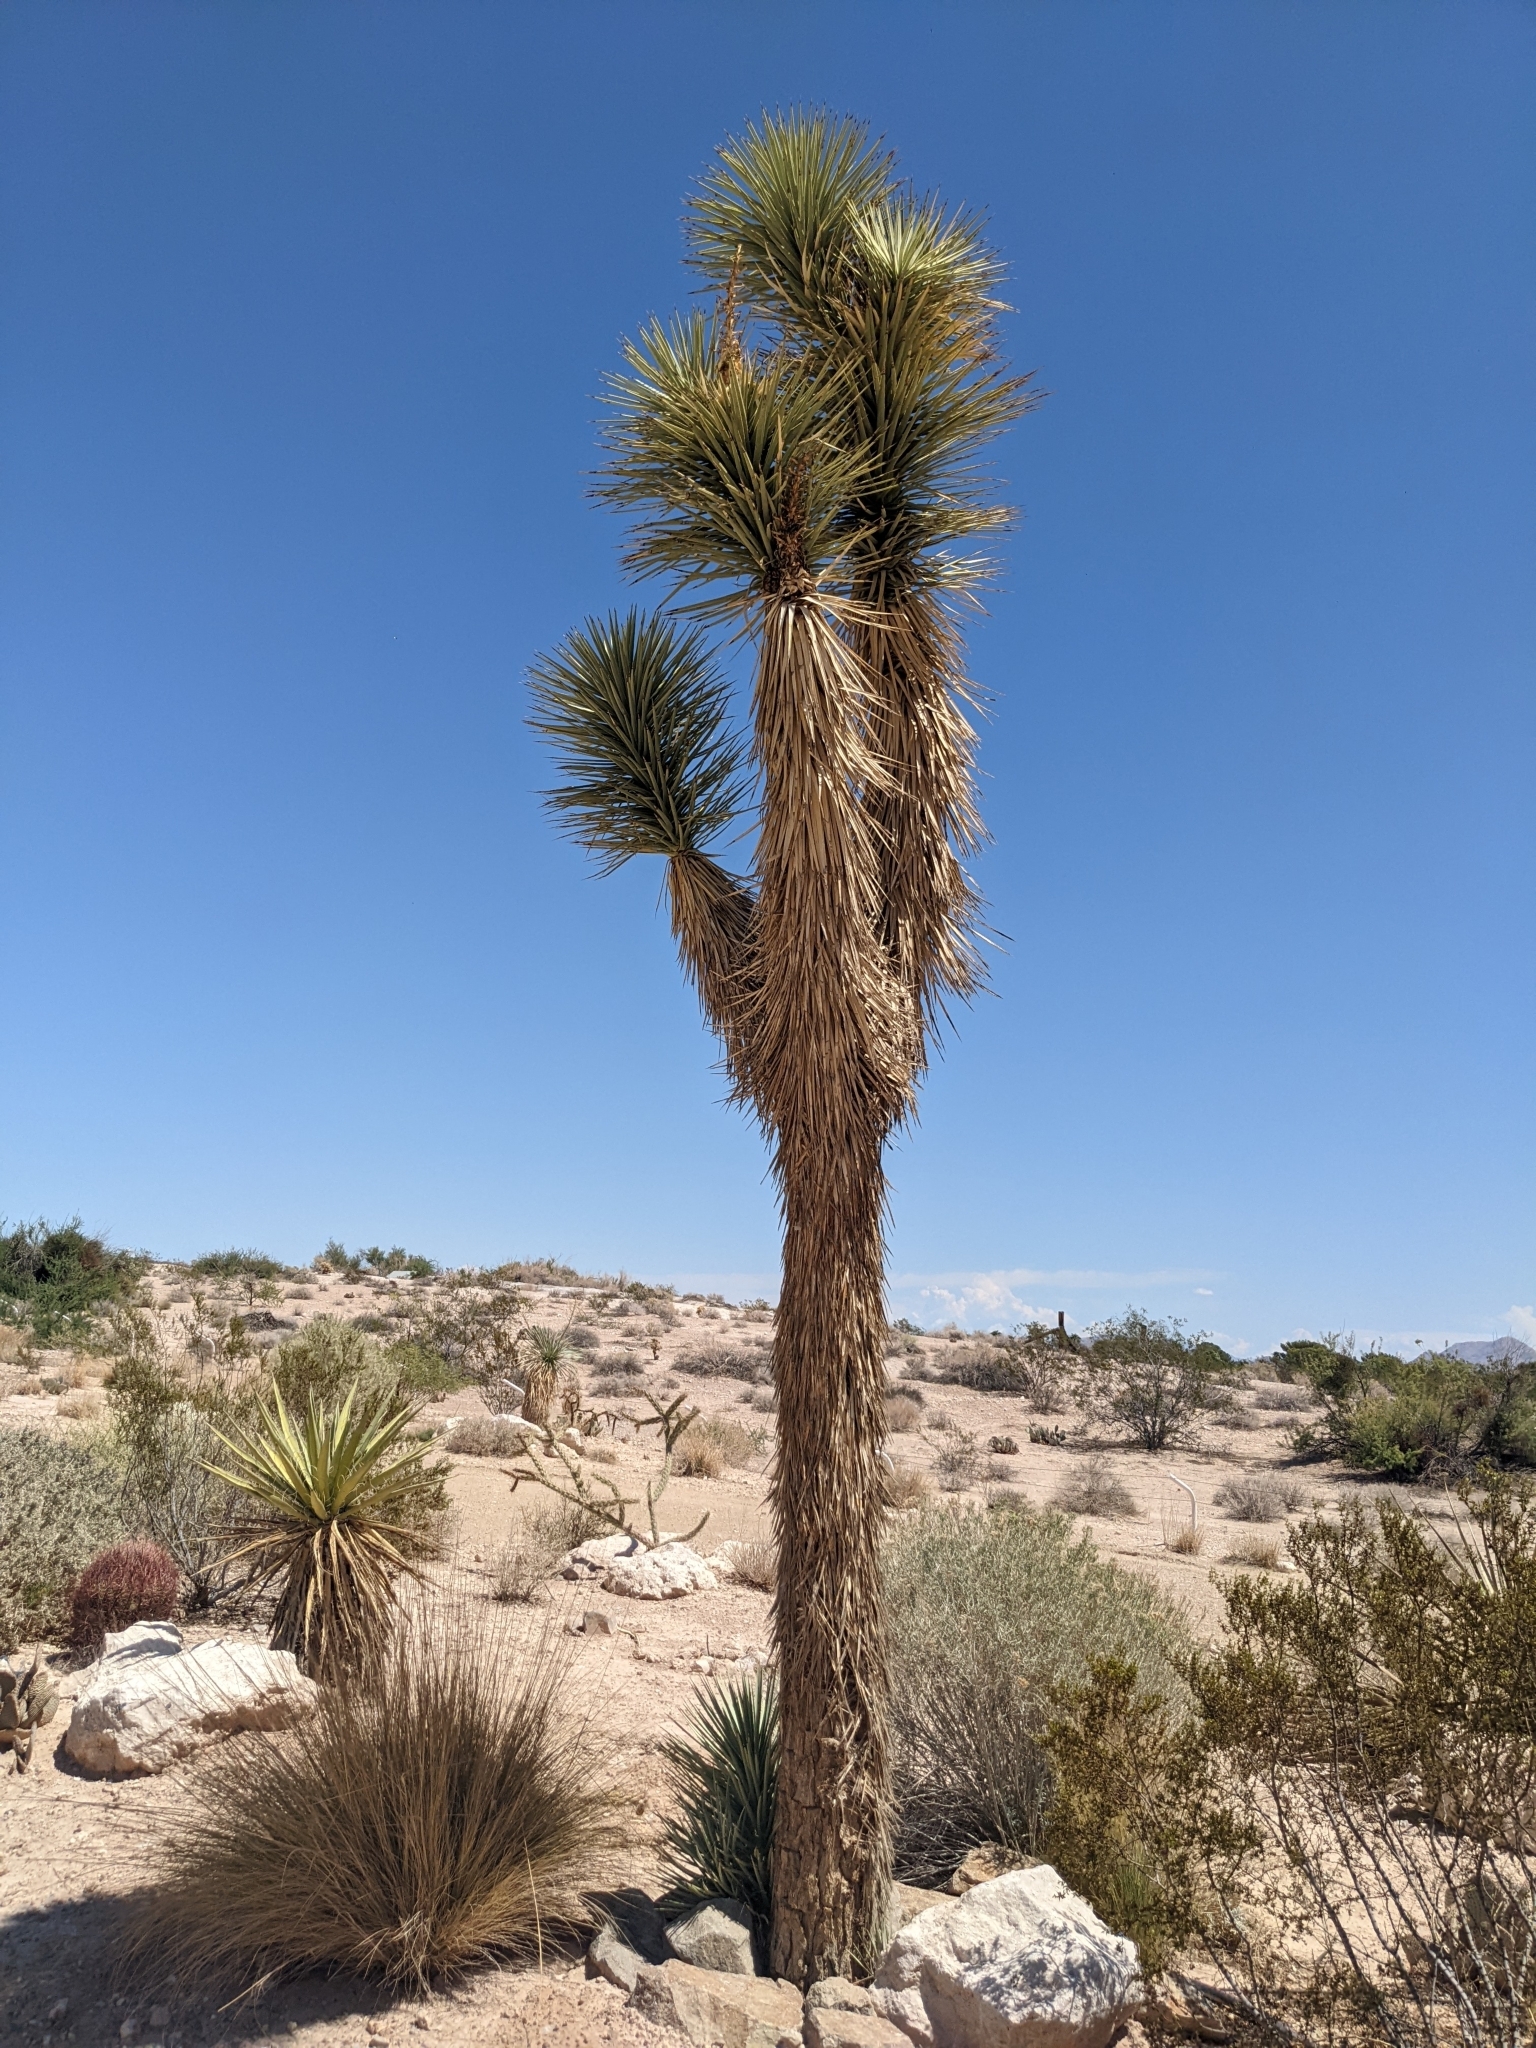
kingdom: Plantae
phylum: Tracheophyta
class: Liliopsida
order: Asparagales
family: Asparagaceae
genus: Yucca
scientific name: Yucca brevifolia
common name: Joshua tree
